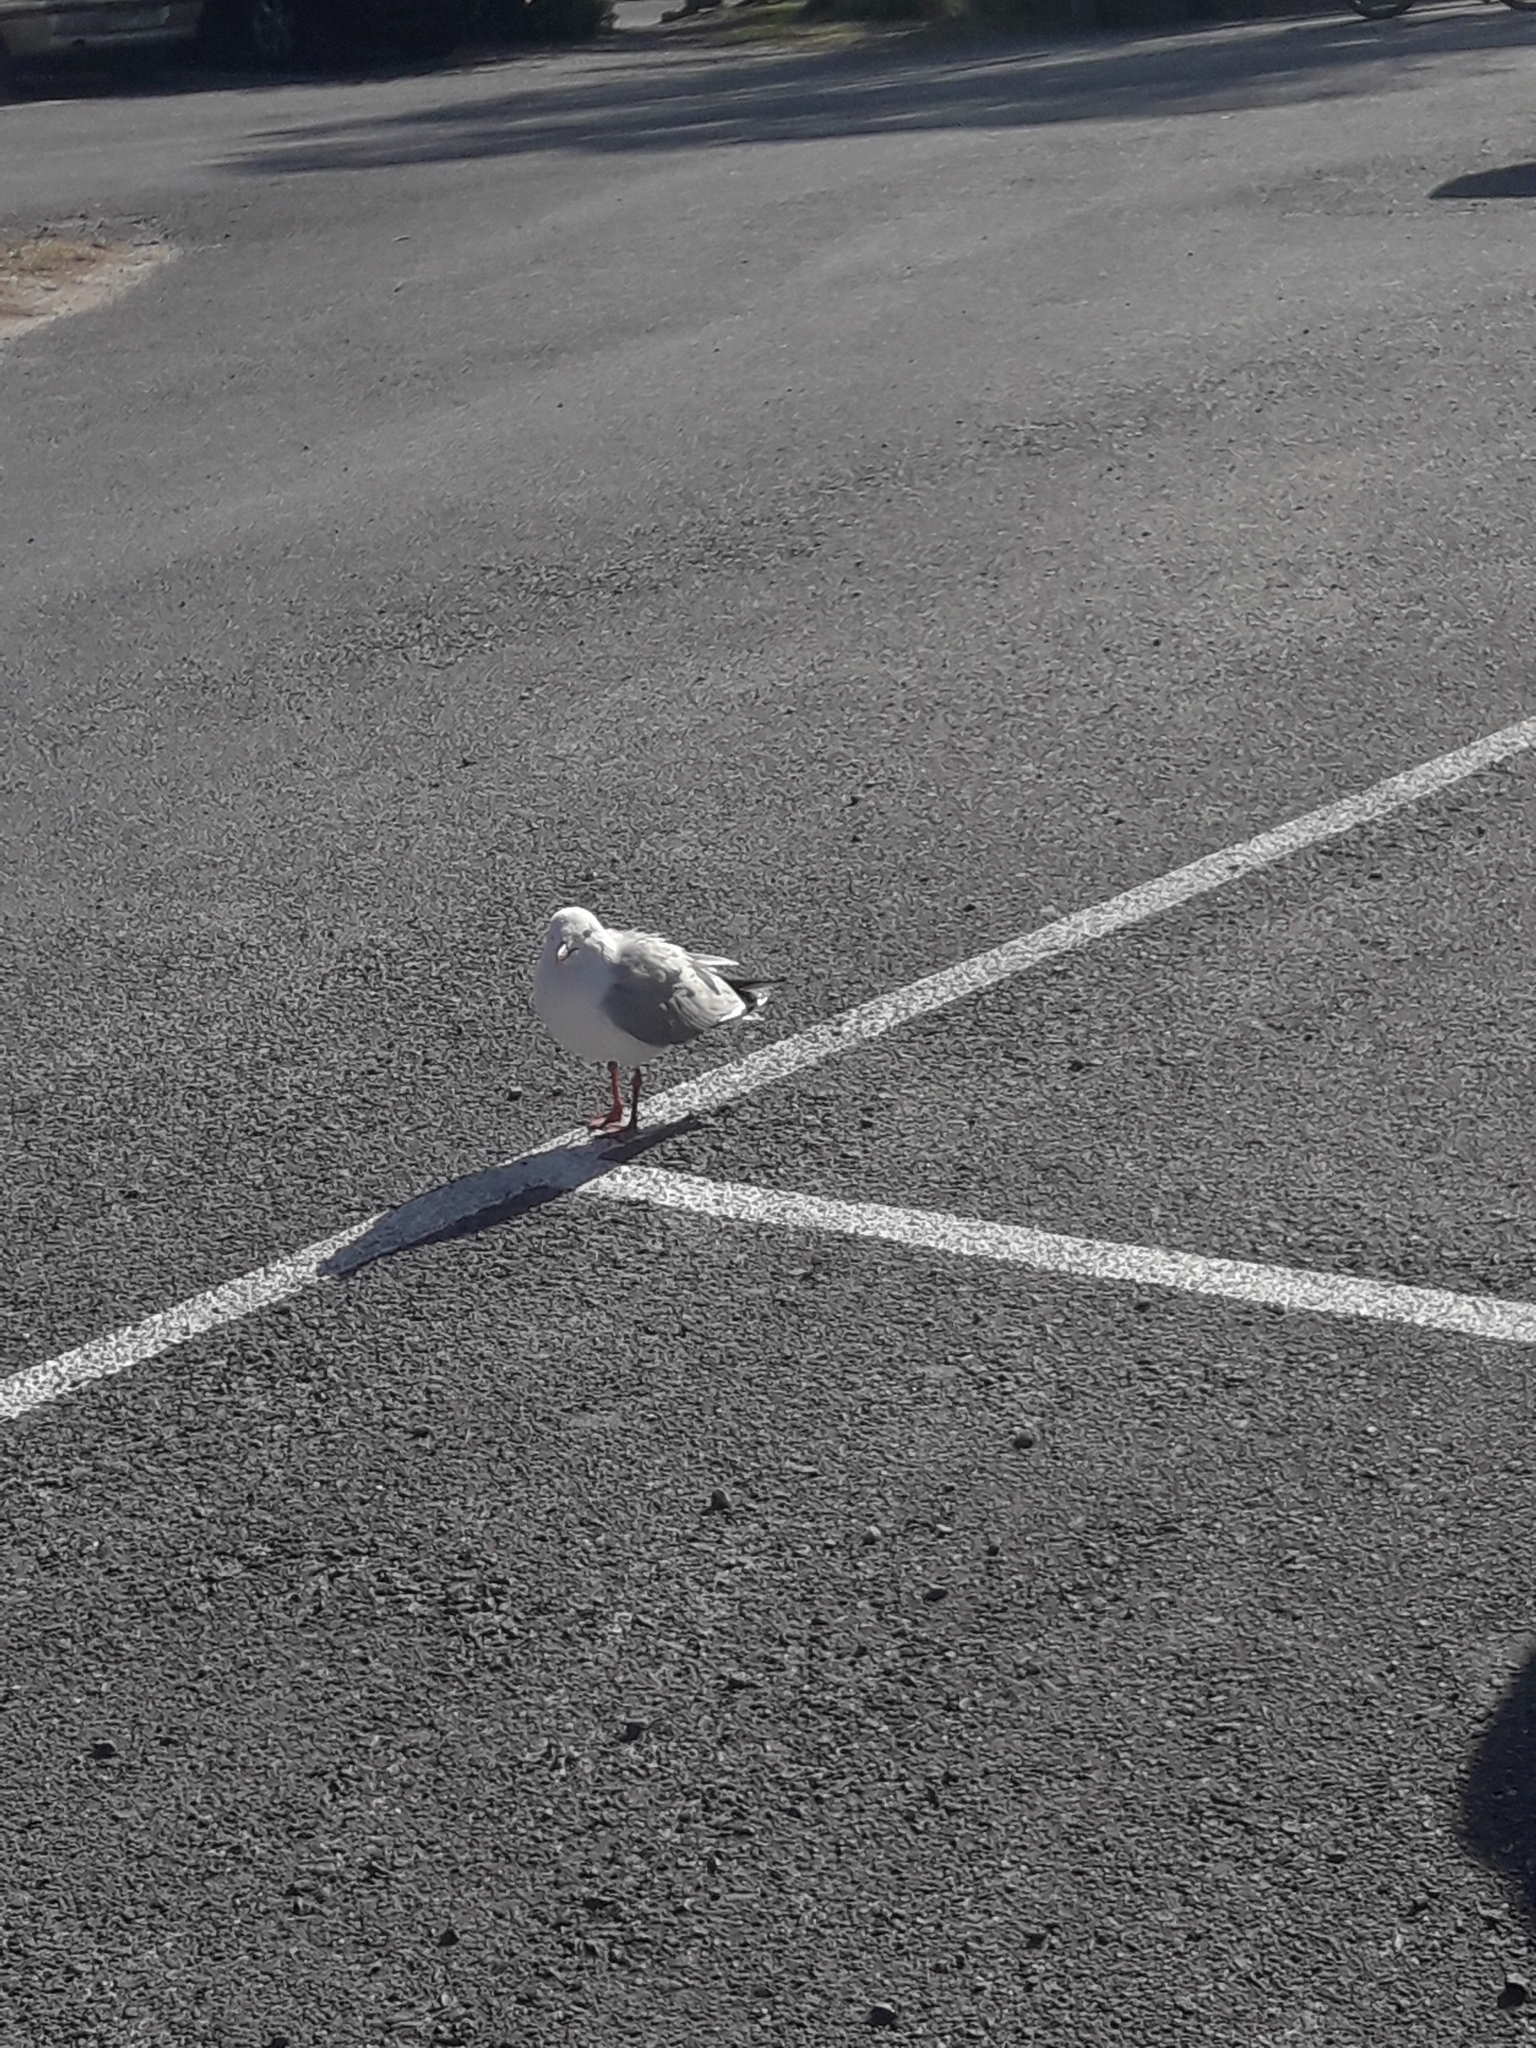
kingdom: Animalia
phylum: Chordata
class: Aves
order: Charadriiformes
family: Laridae
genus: Chroicocephalus
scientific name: Chroicocephalus novaehollandiae
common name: Silver gull
